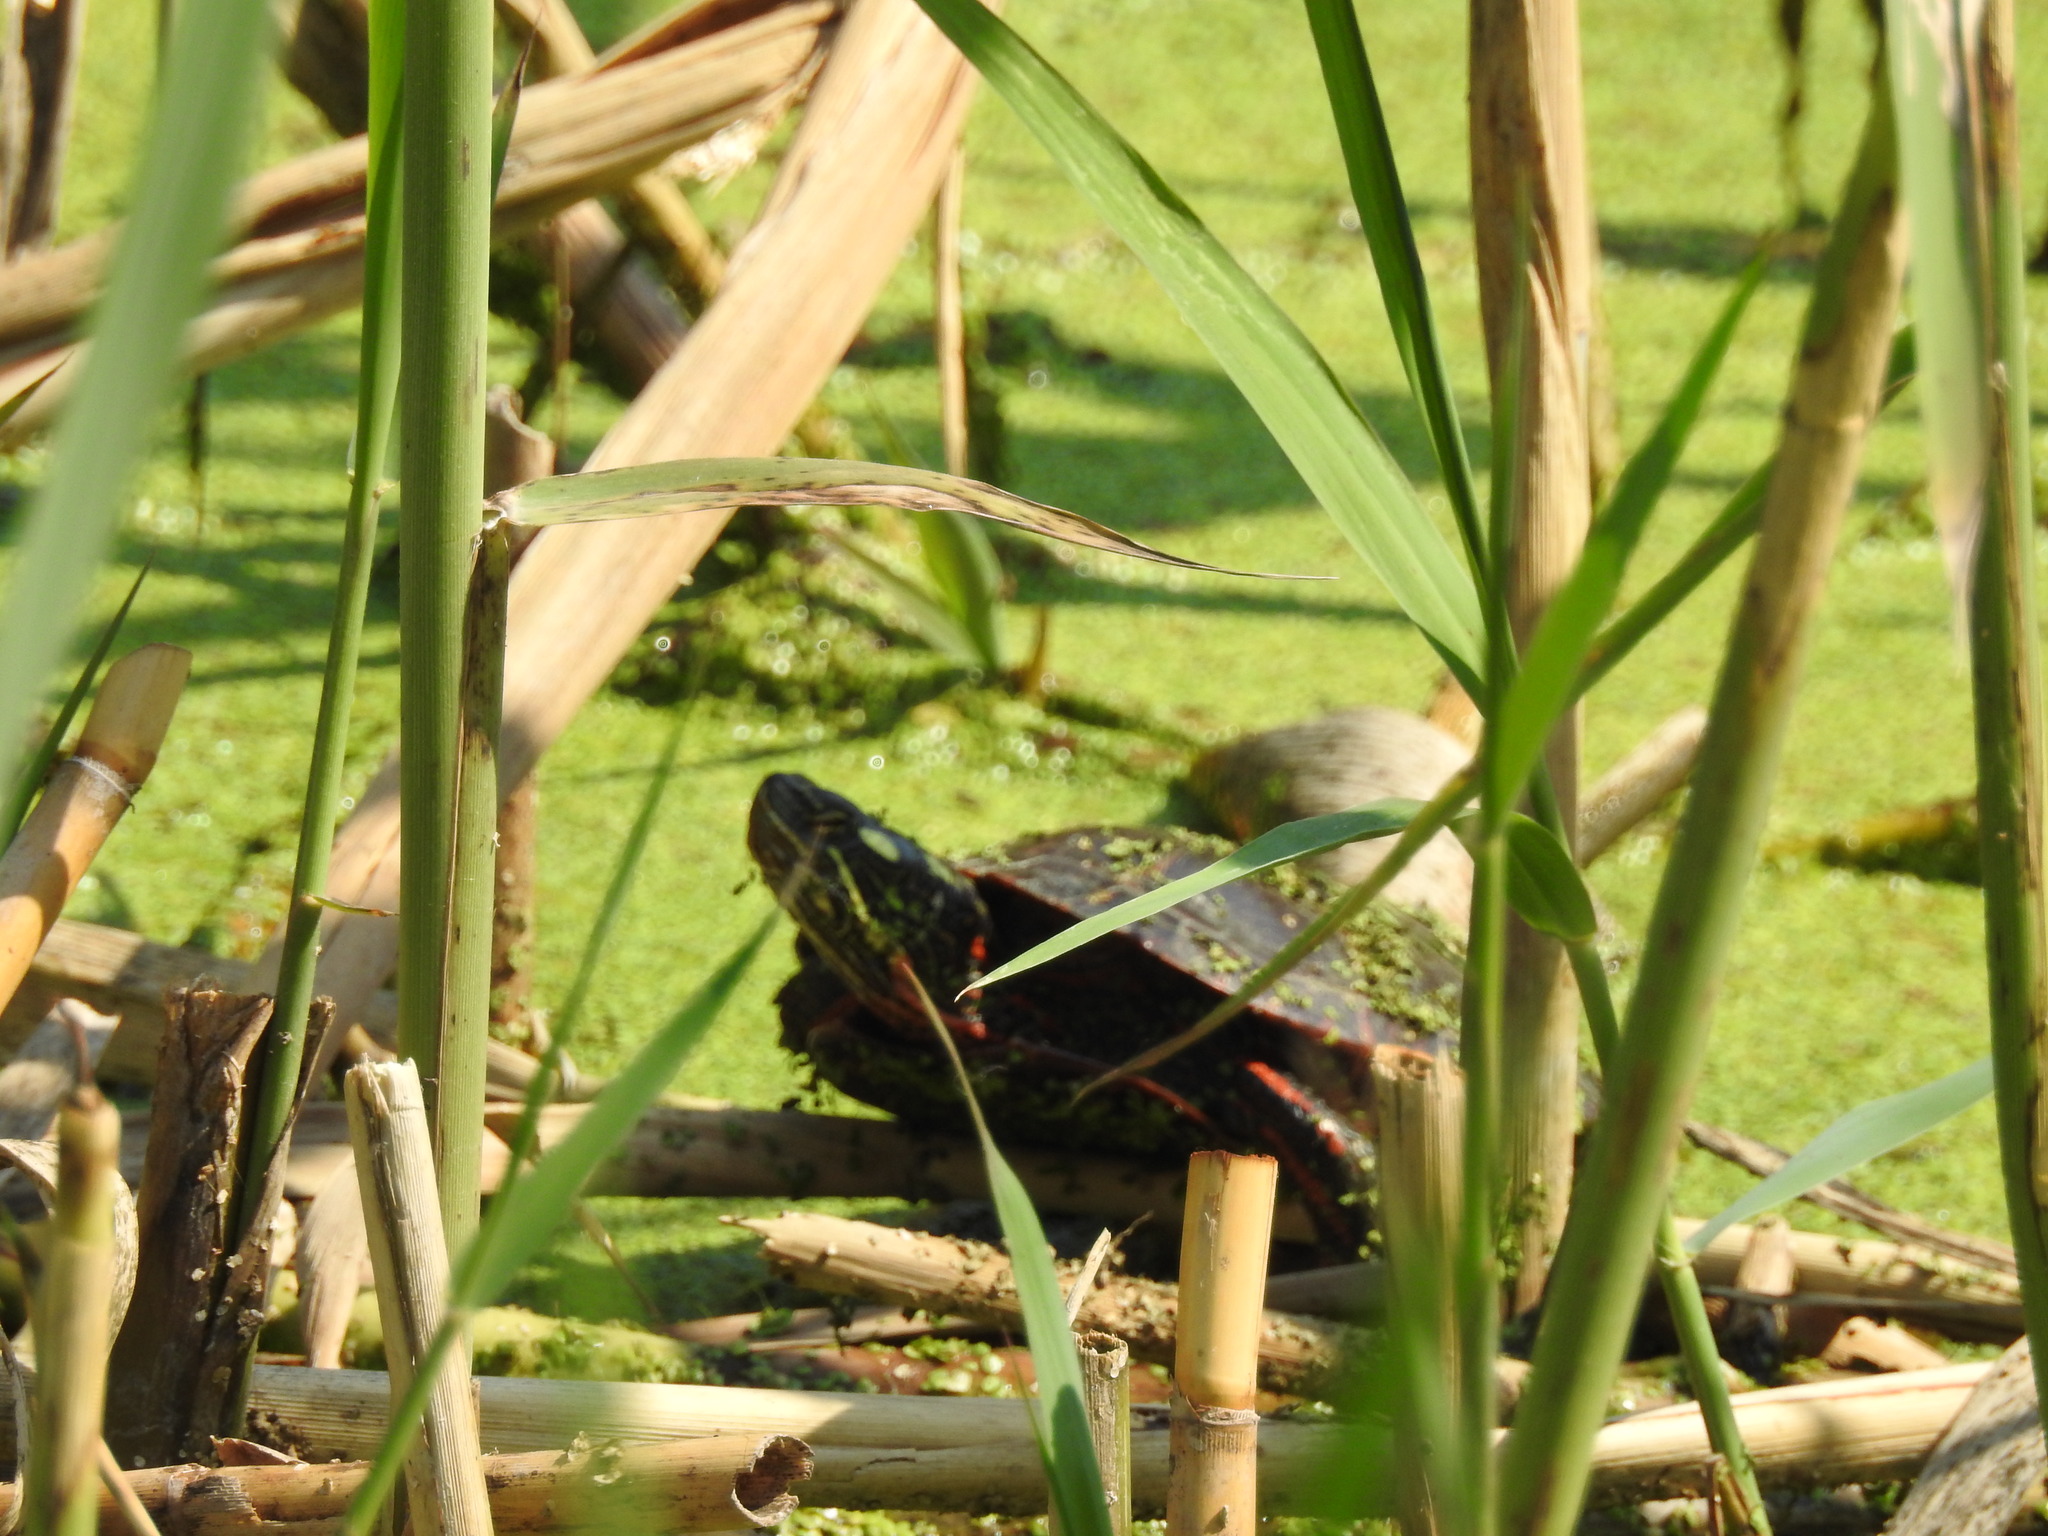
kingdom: Animalia
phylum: Chordata
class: Testudines
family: Emydidae
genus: Chrysemys
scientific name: Chrysemys picta
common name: Painted turtle
